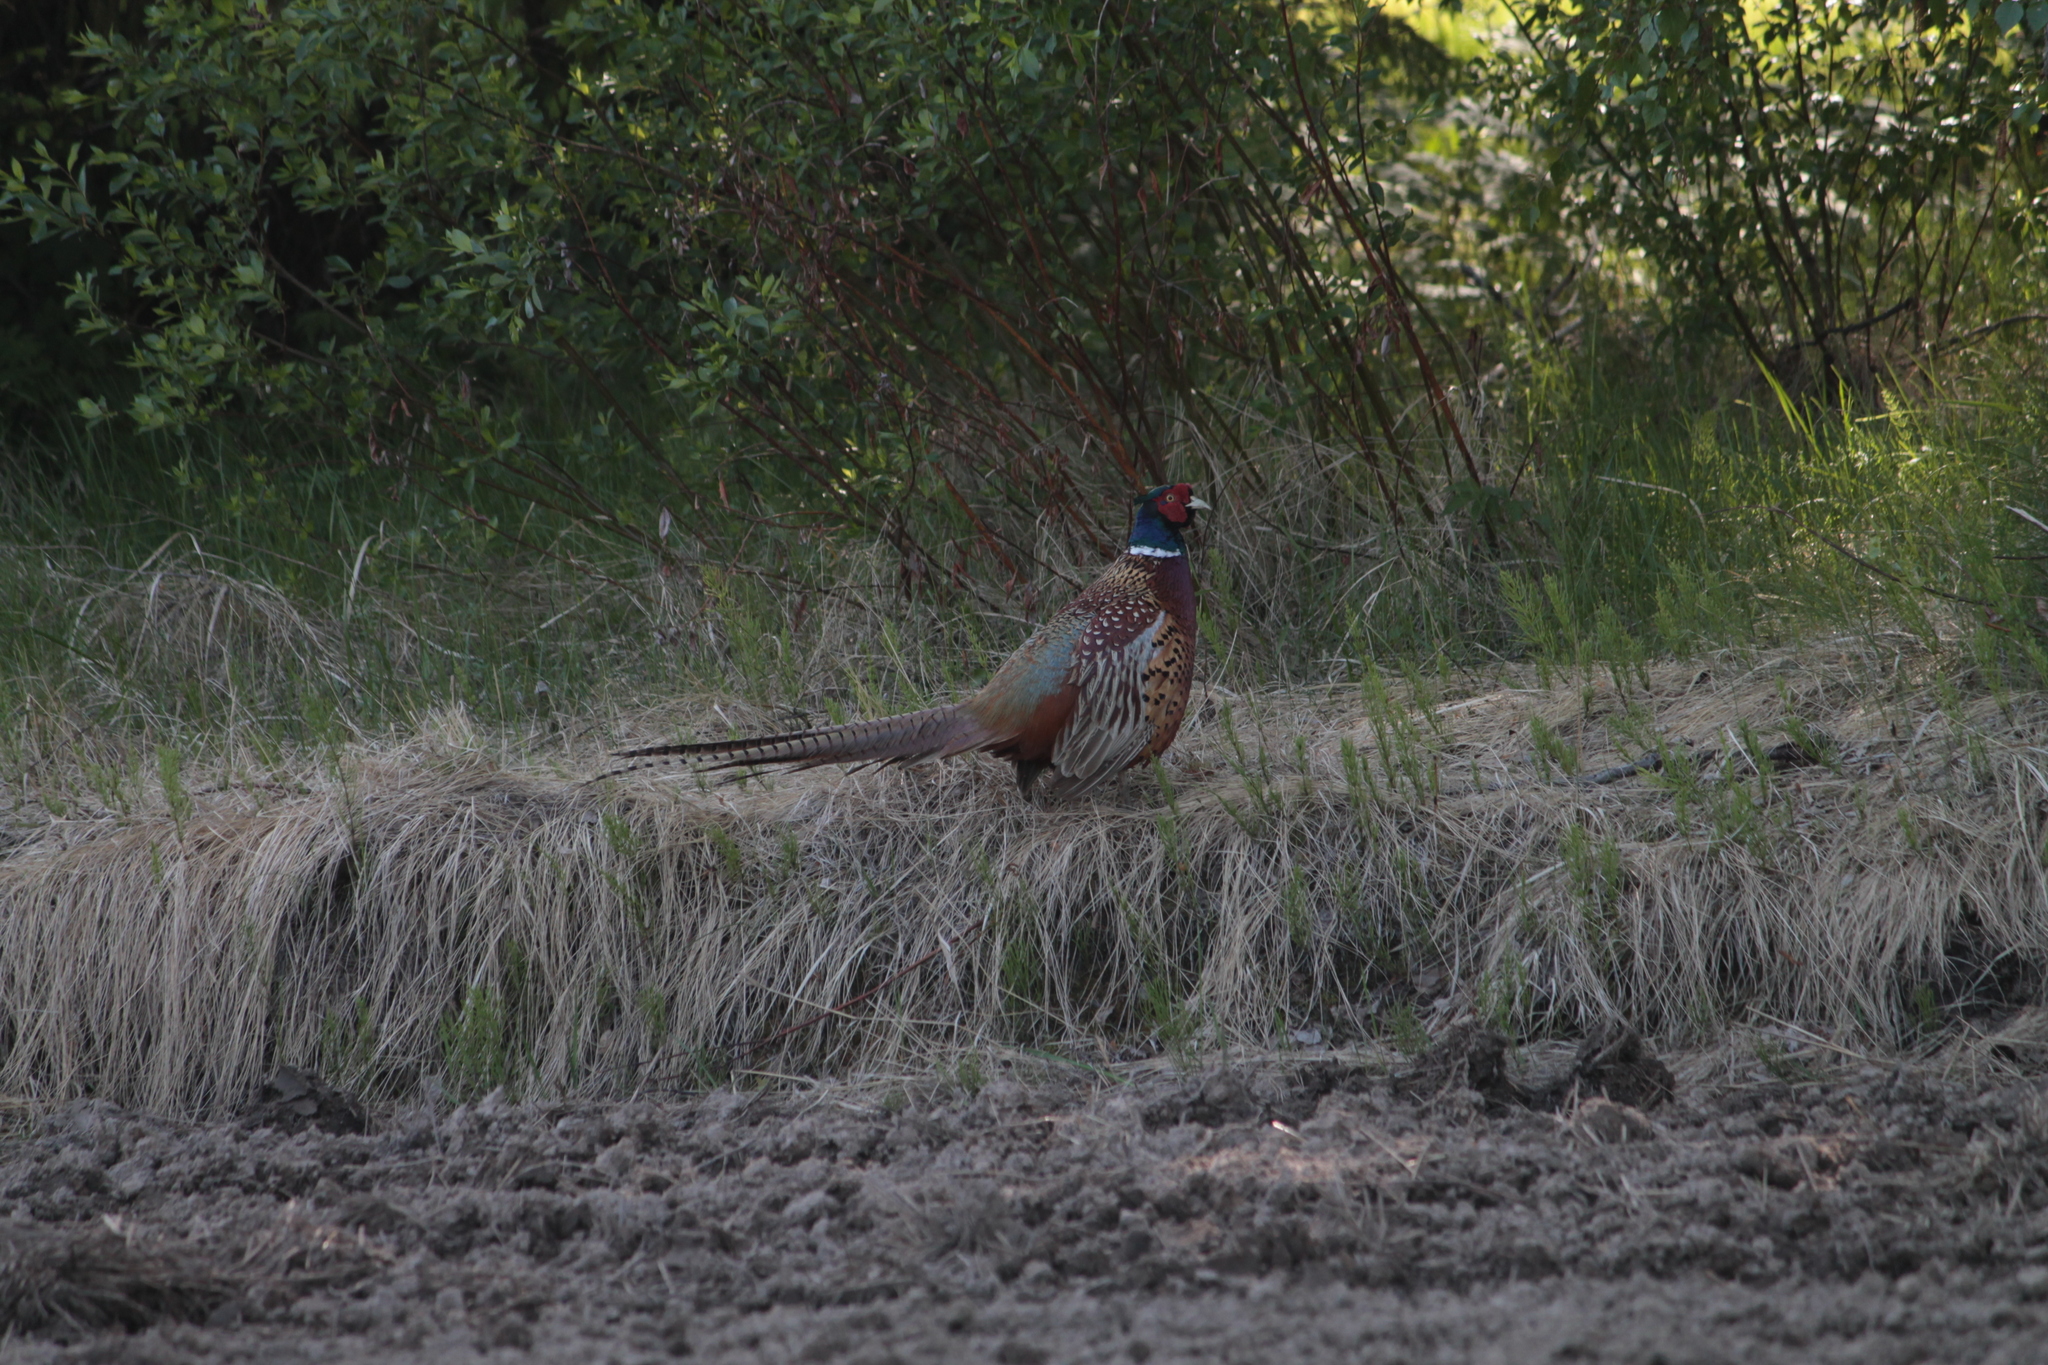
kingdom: Animalia
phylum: Chordata
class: Aves
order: Galliformes
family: Phasianidae
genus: Phasianus
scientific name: Phasianus colchicus
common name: Common pheasant
